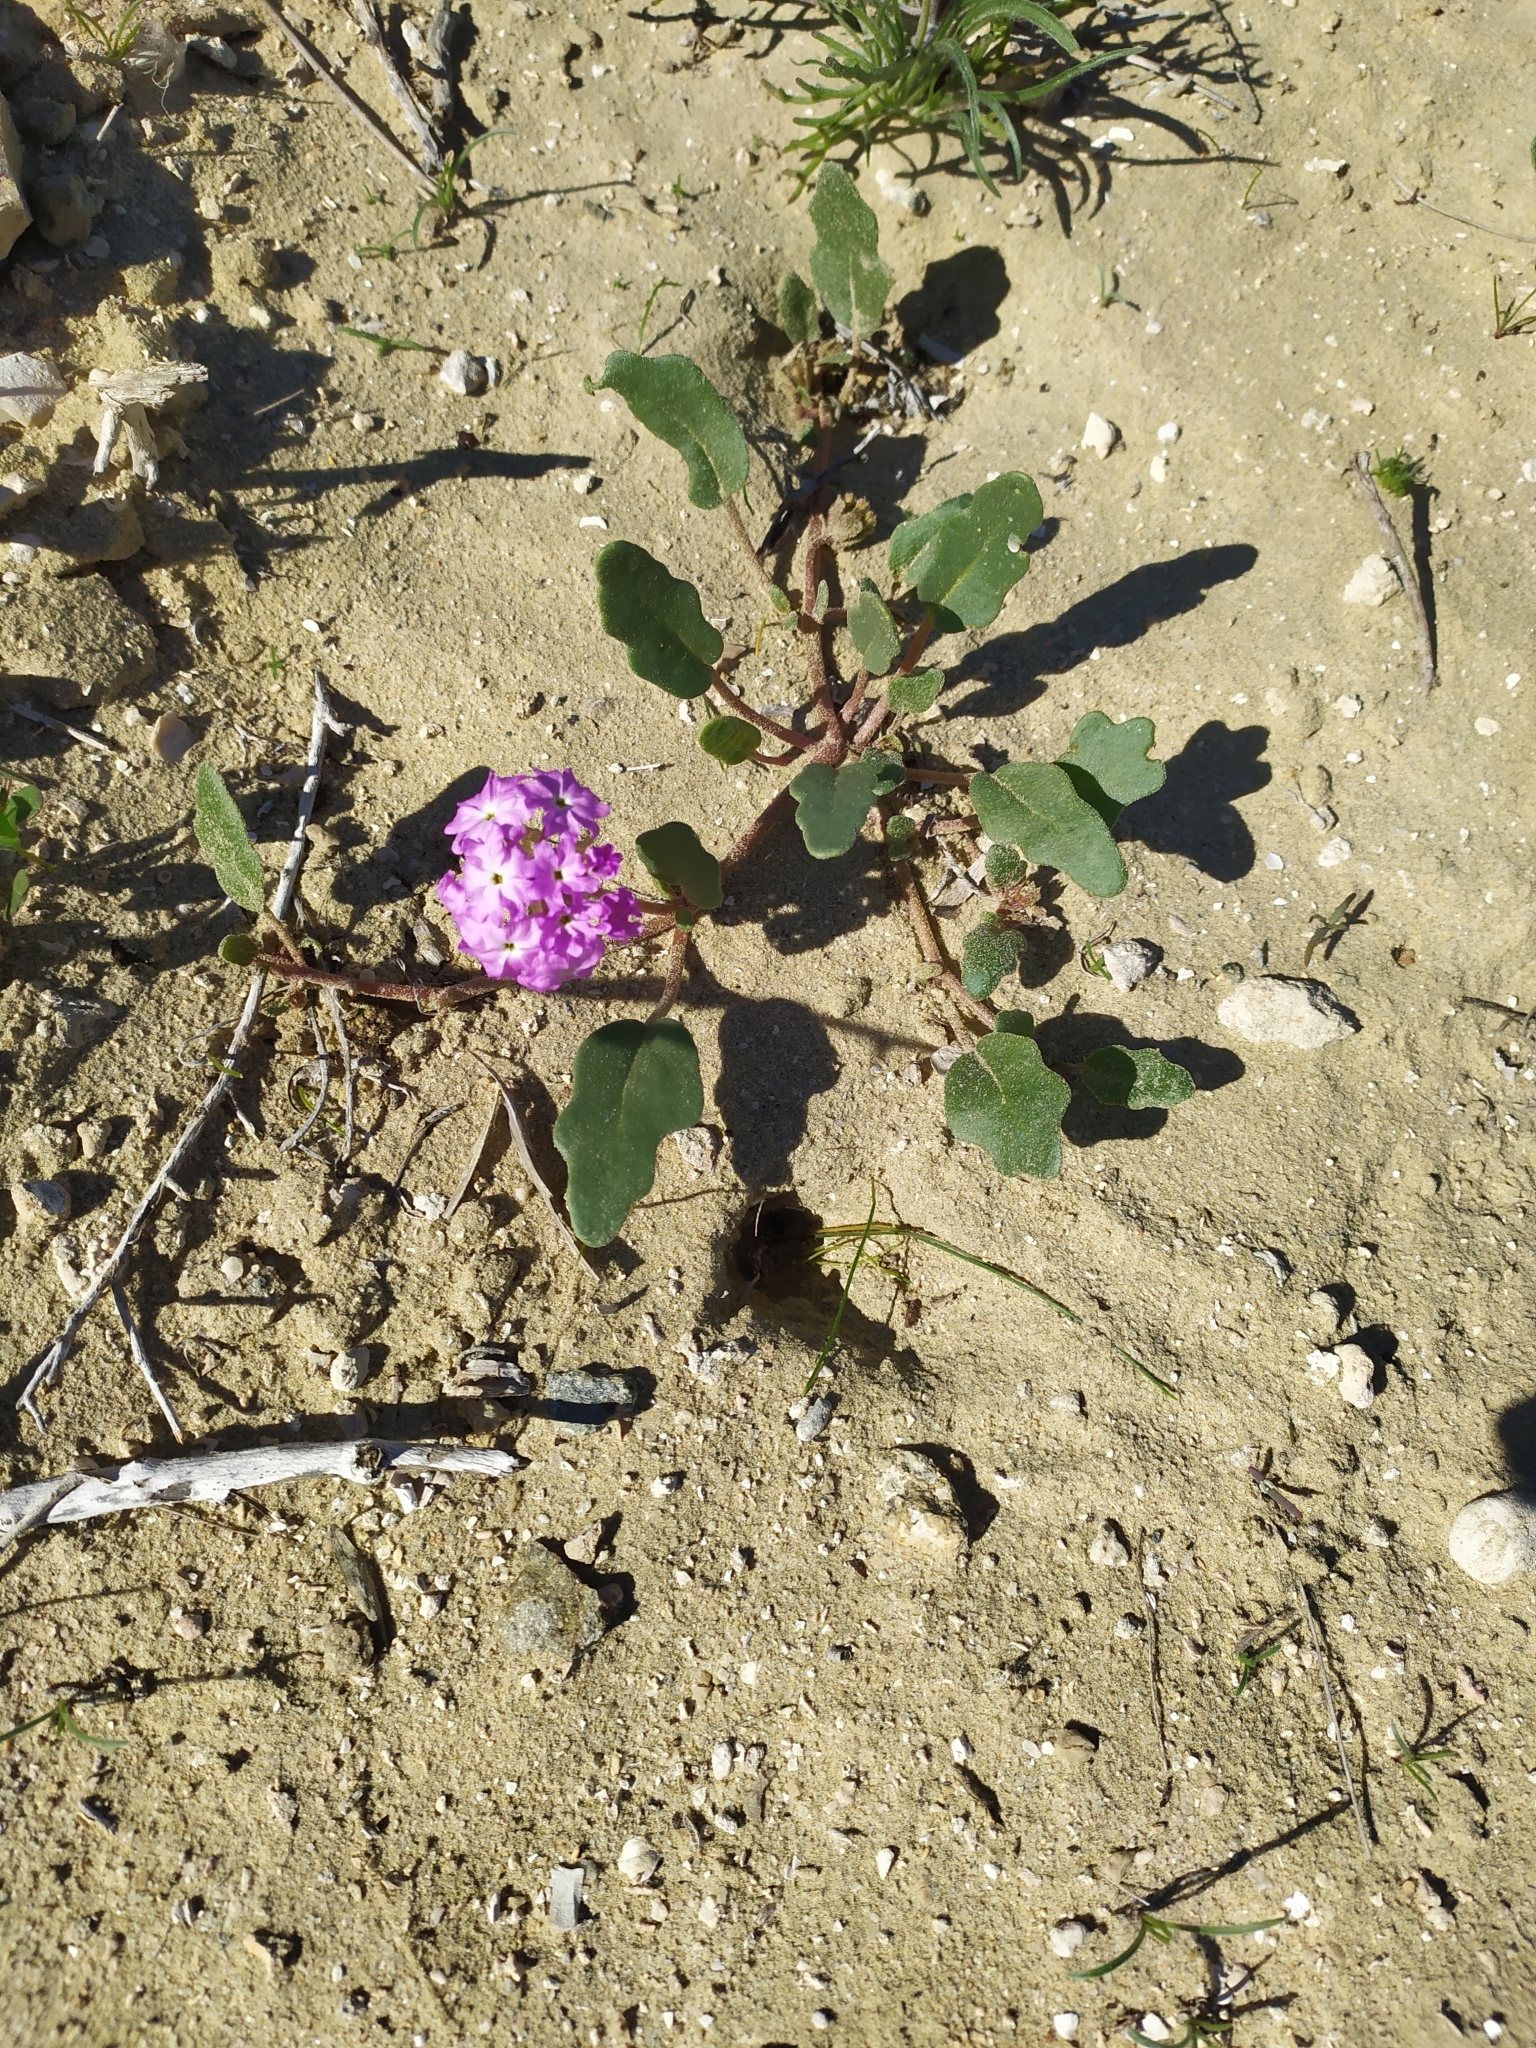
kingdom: Plantae
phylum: Tracheophyta
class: Magnoliopsida
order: Caryophyllales
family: Nyctaginaceae
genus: Abronia
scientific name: Abronia gracilis
